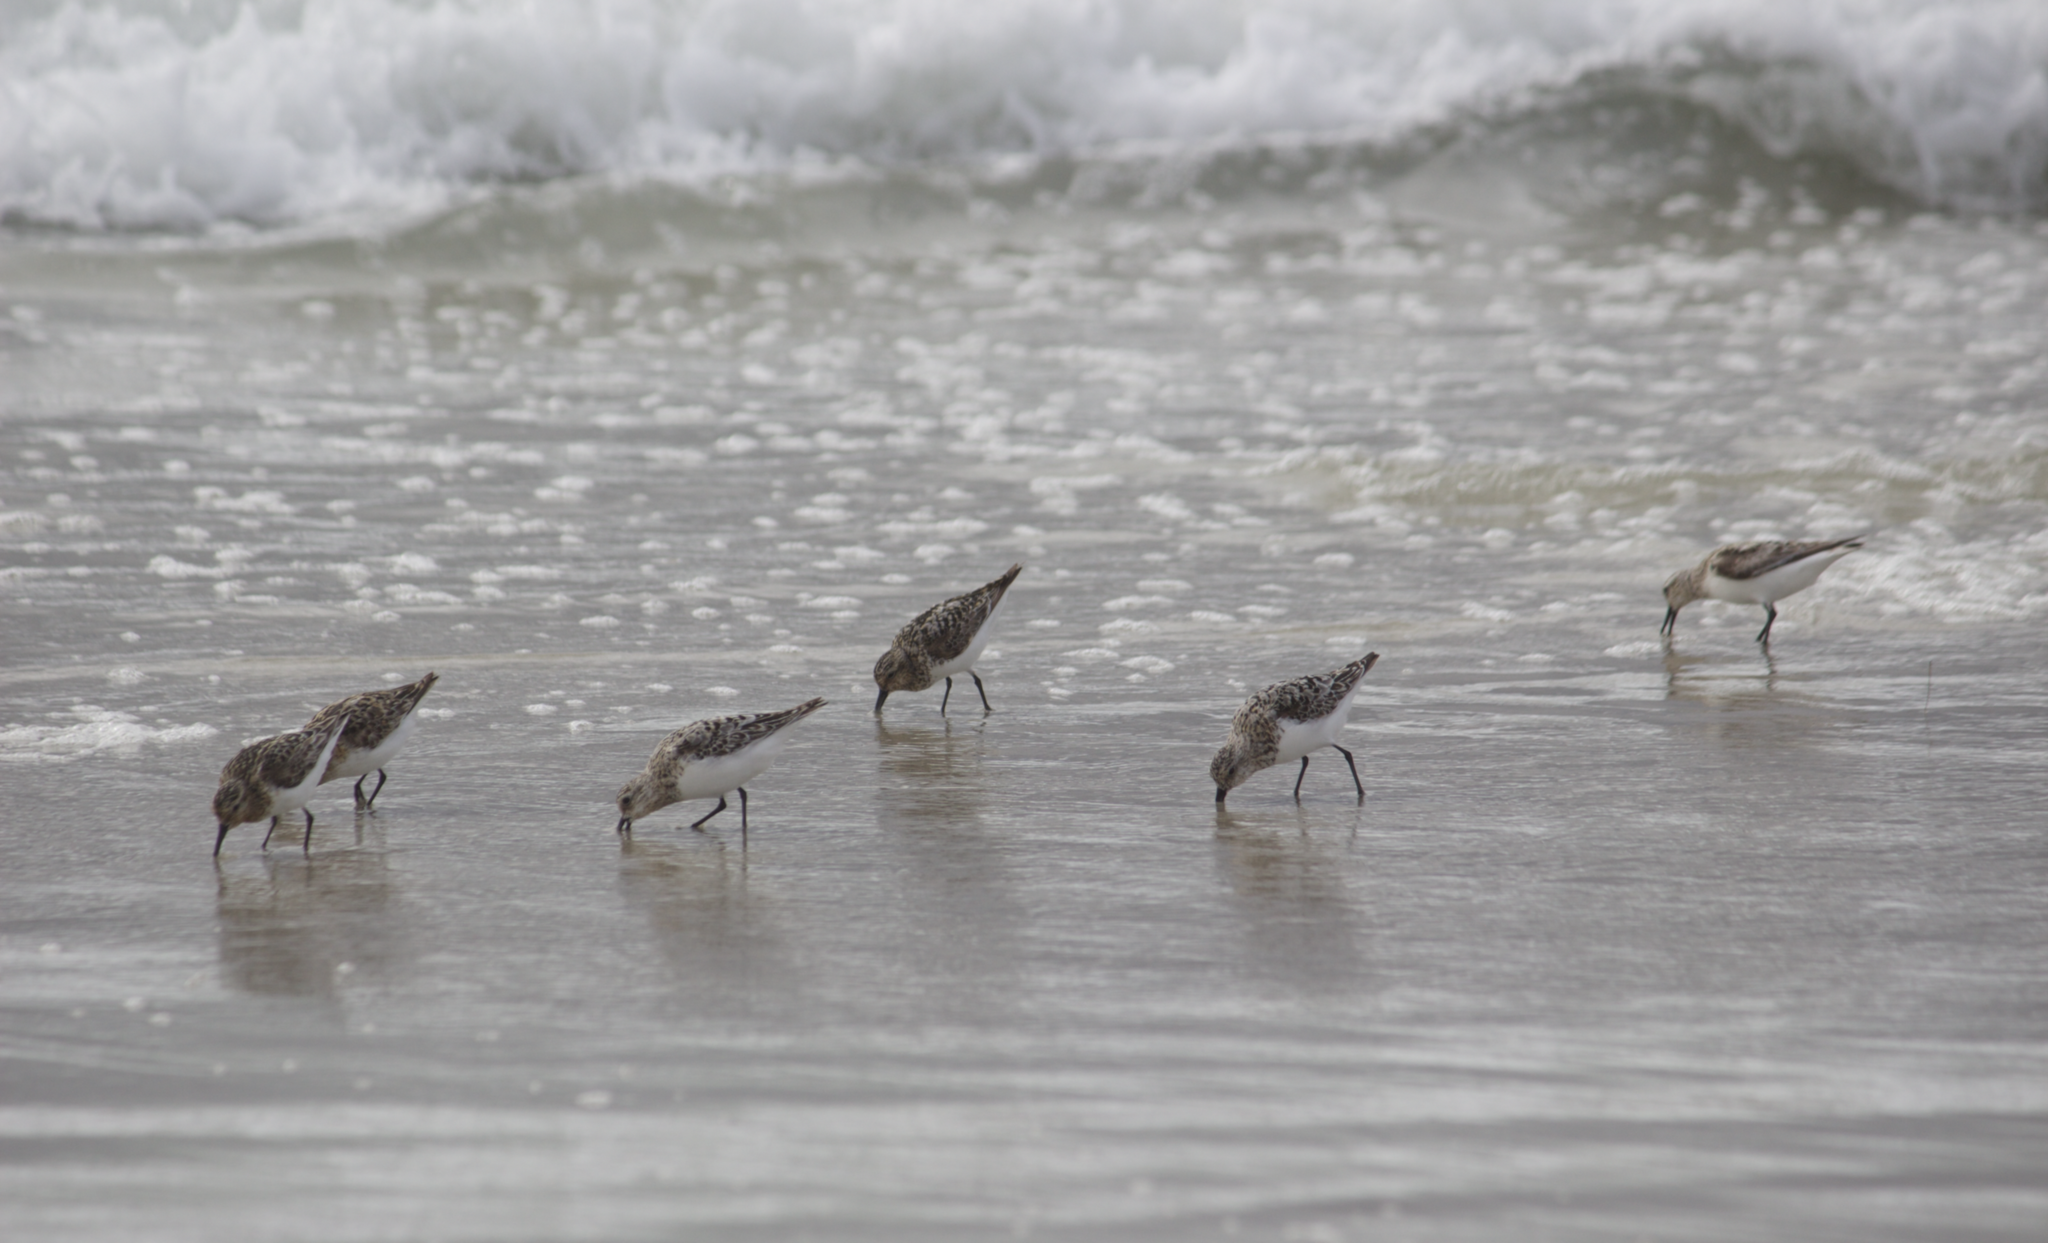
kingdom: Animalia
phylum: Chordata
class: Aves
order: Charadriiformes
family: Scolopacidae
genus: Calidris
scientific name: Calidris alba
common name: Sanderling
